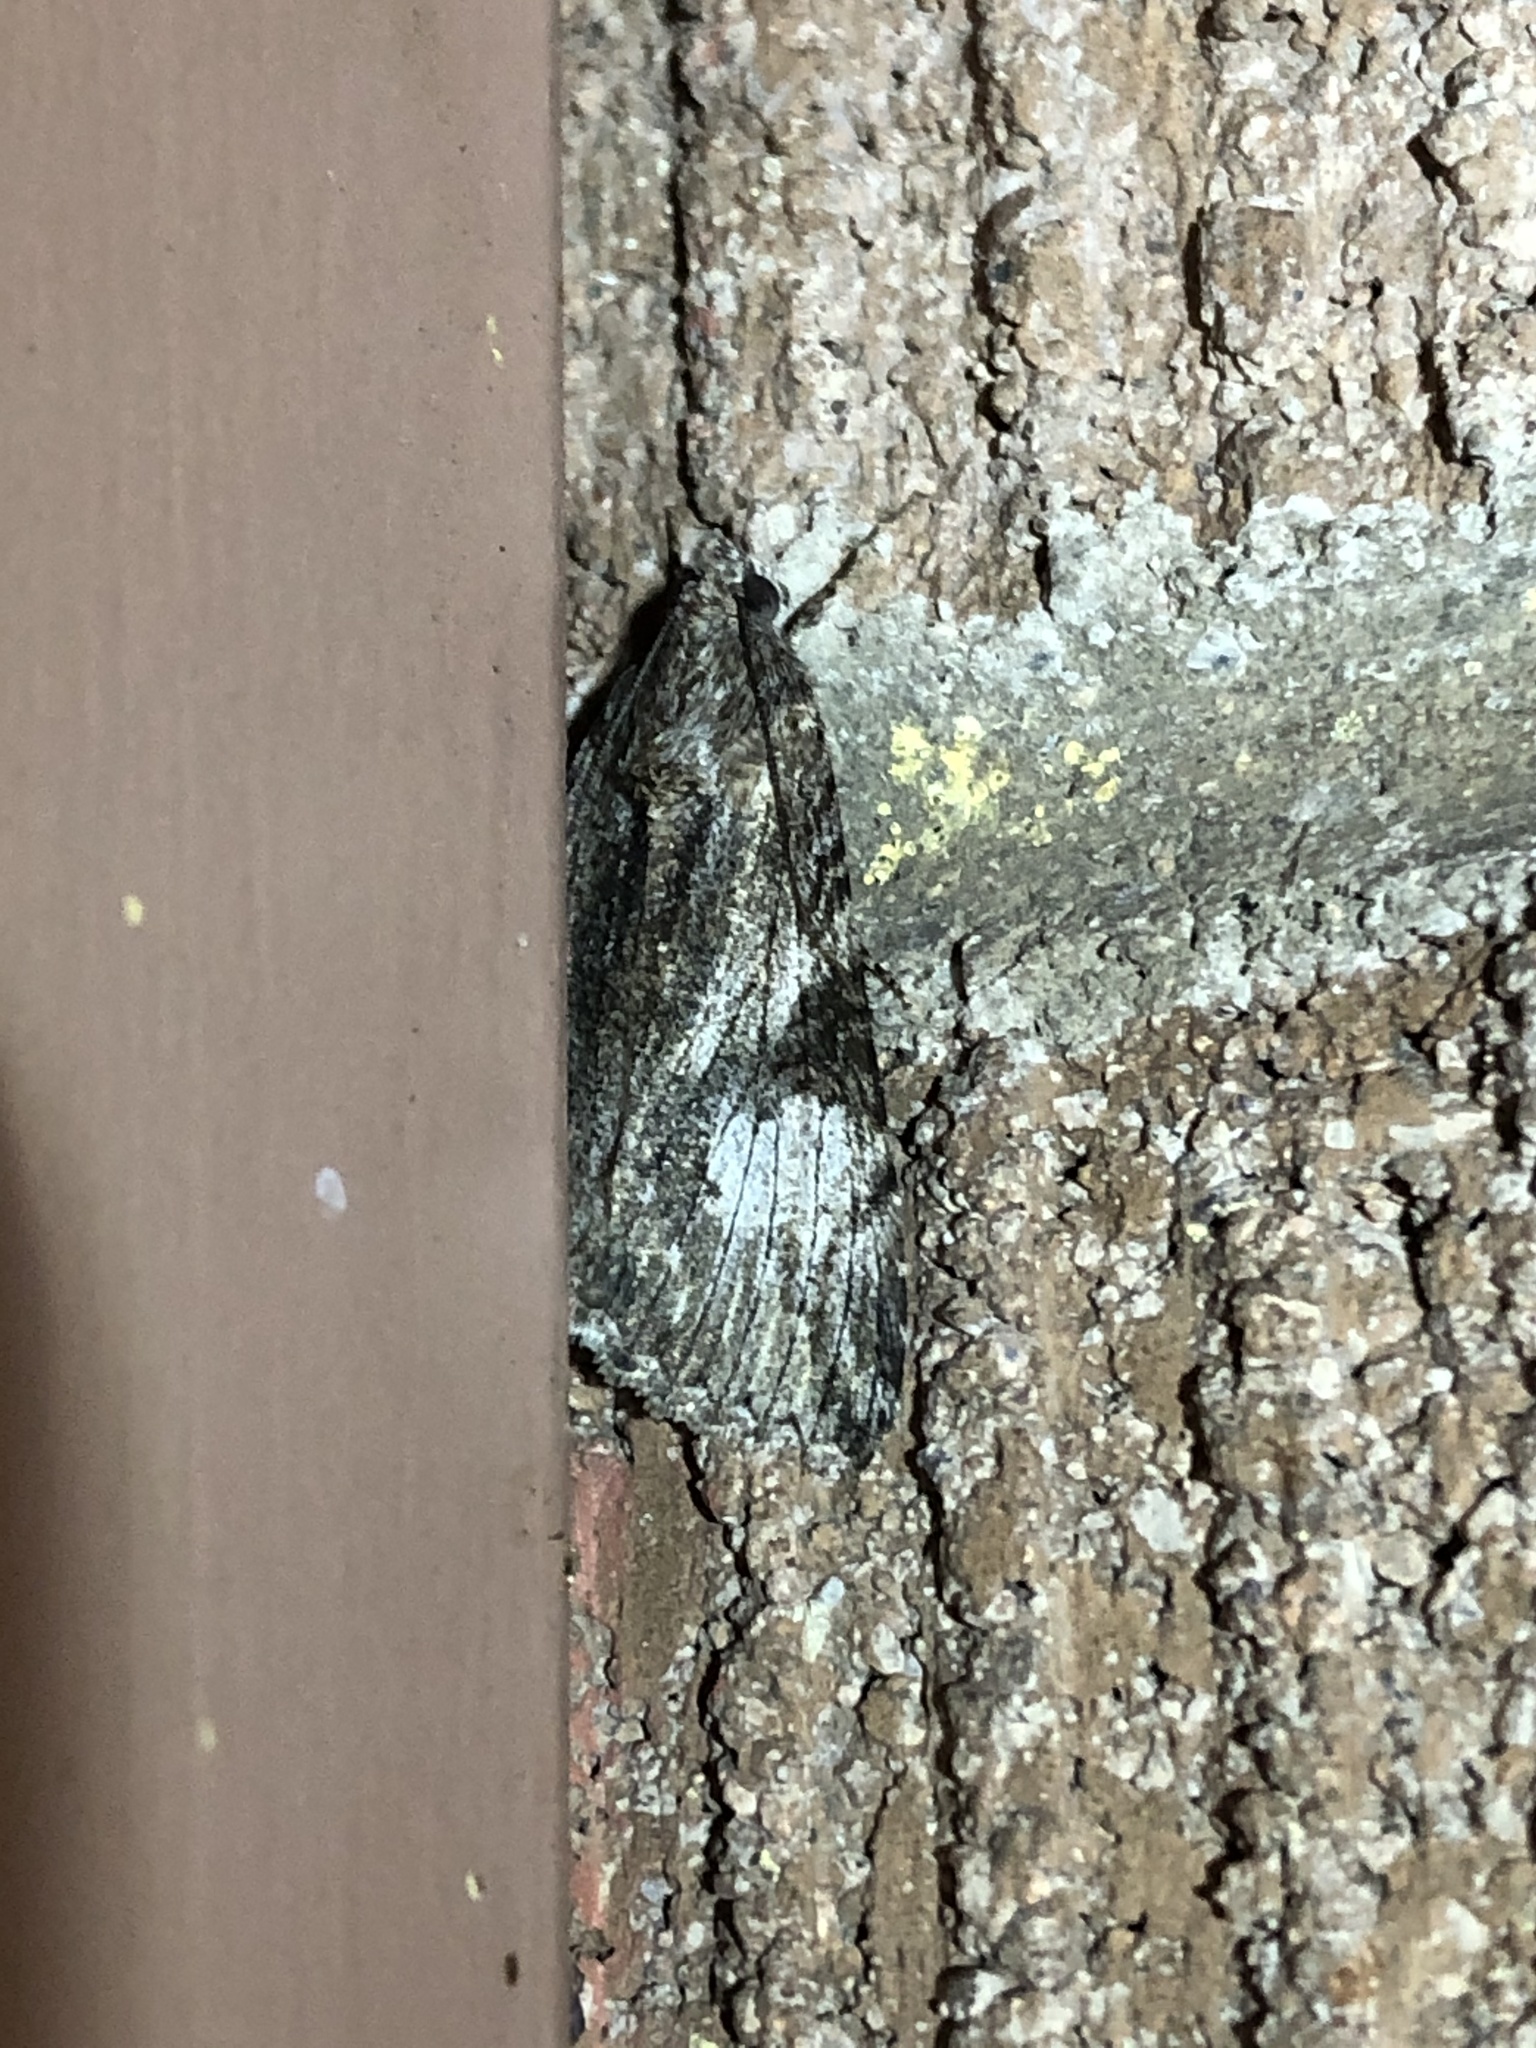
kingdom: Animalia
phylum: Arthropoda
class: Insecta
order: Lepidoptera
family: Erebidae
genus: Melipotis
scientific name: Melipotis jucunda
